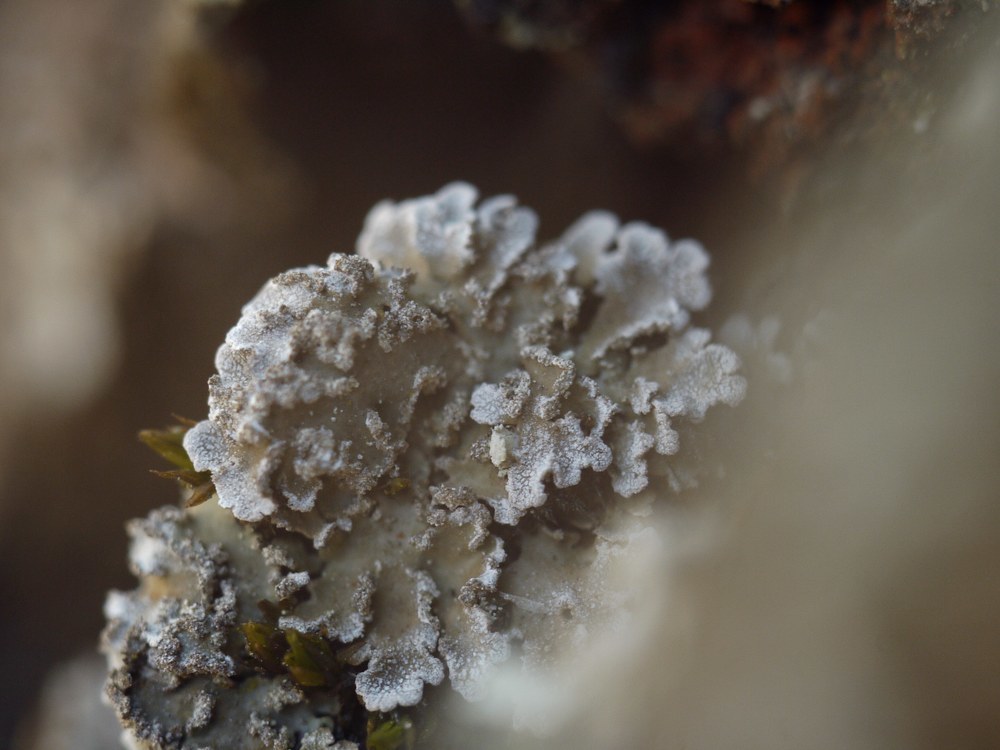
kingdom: Fungi
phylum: Ascomycota
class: Lecanoromycetes
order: Caliciales
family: Physciaceae
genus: Physconia
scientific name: Physconia enteroxantha
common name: Yellow-edged frost lichen
